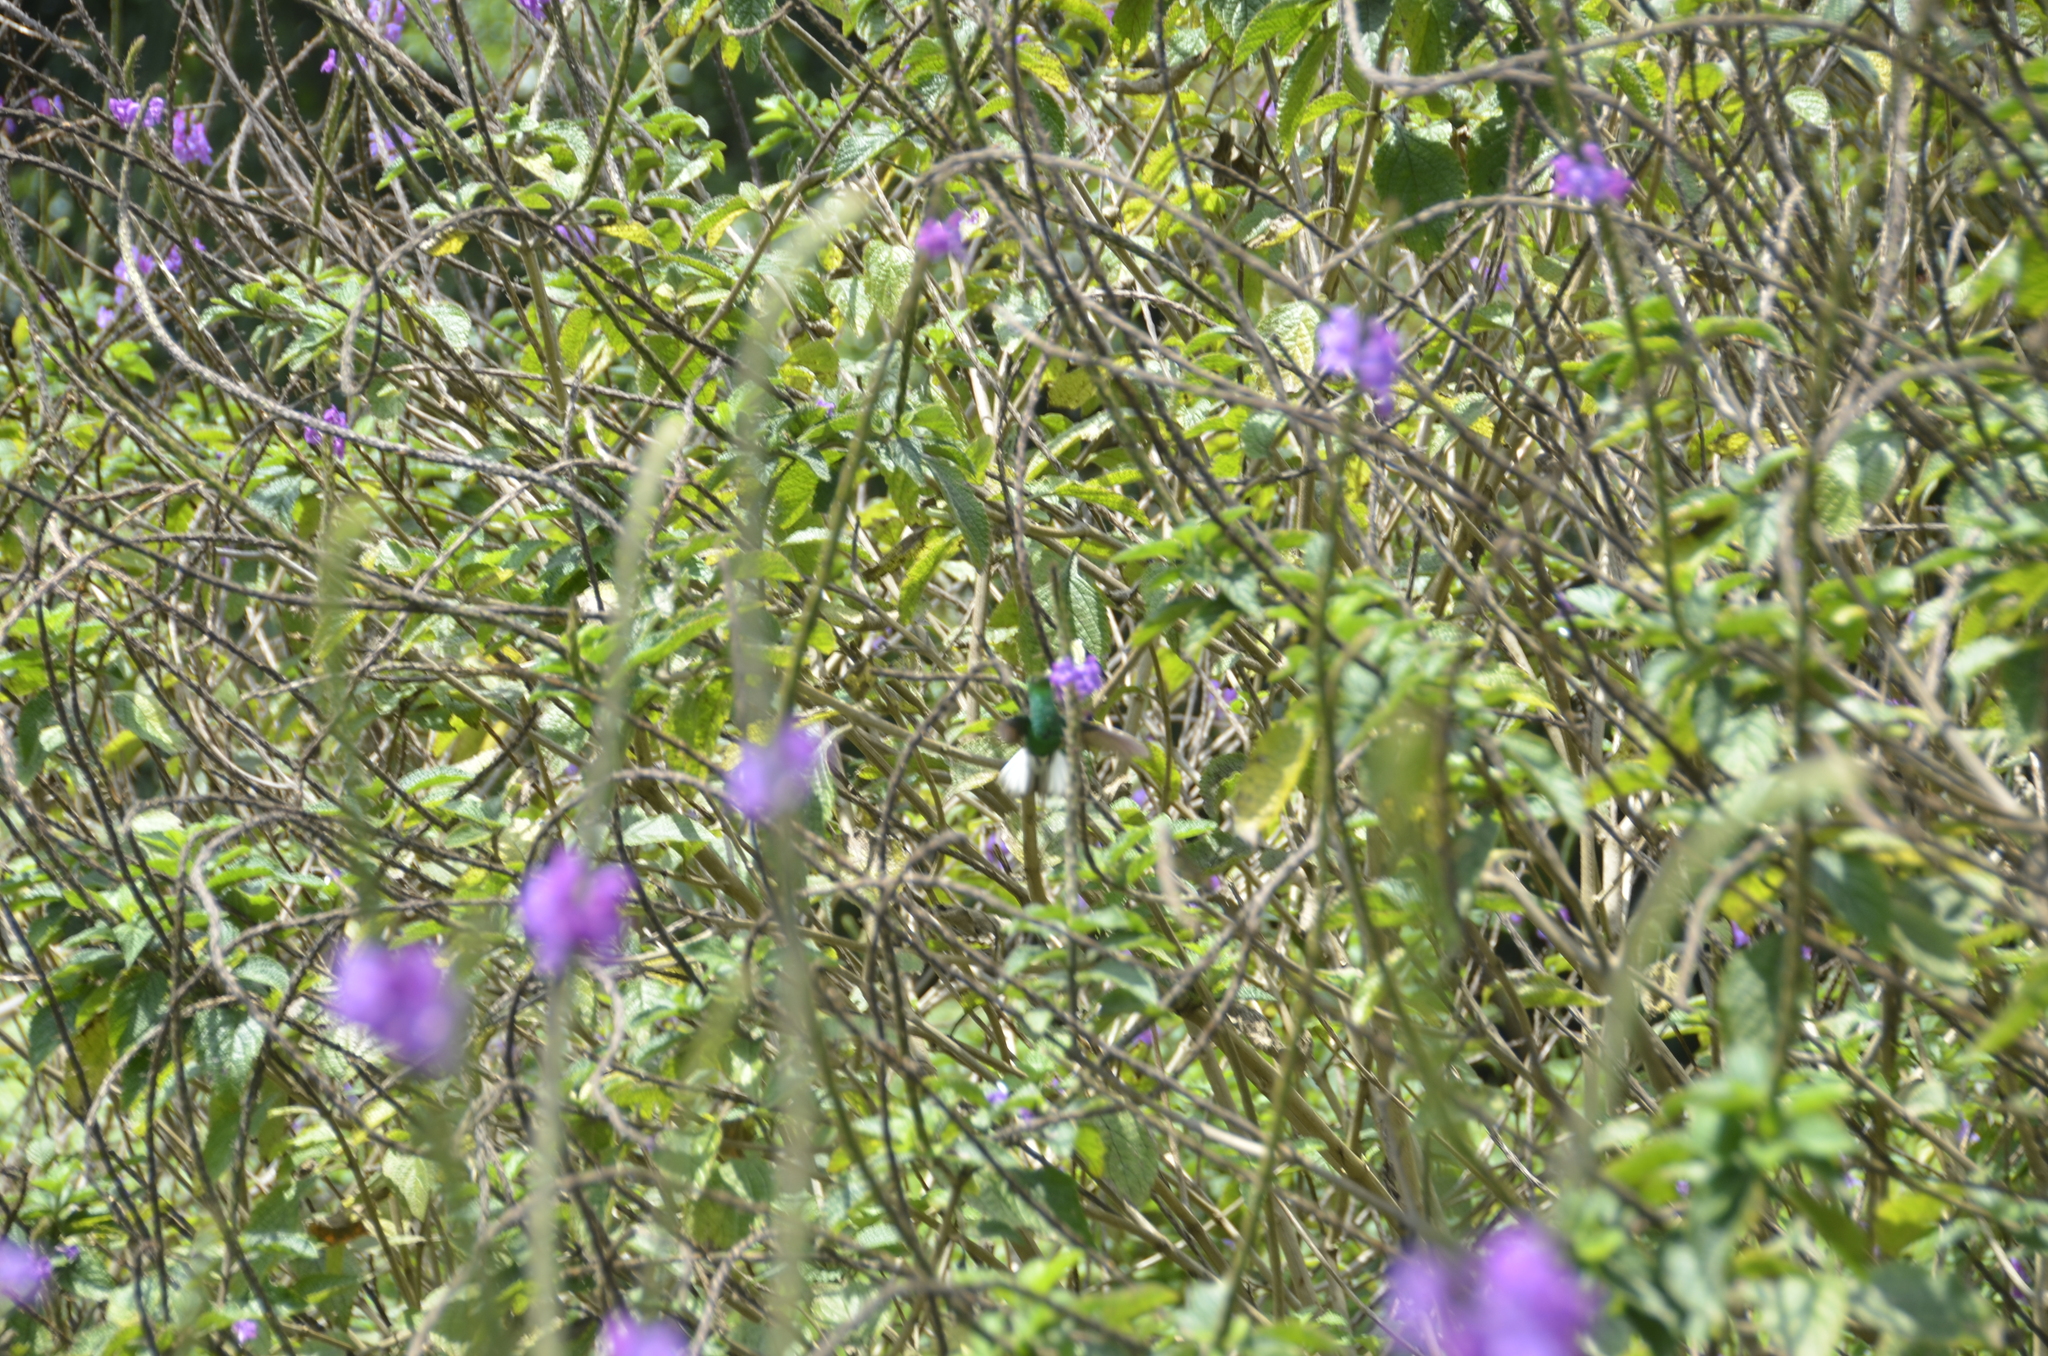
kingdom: Animalia
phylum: Chordata
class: Aves
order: Apodiformes
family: Trochilidae
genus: Microchera
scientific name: Microchera cupreiceps
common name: Coppery-headed emerald
